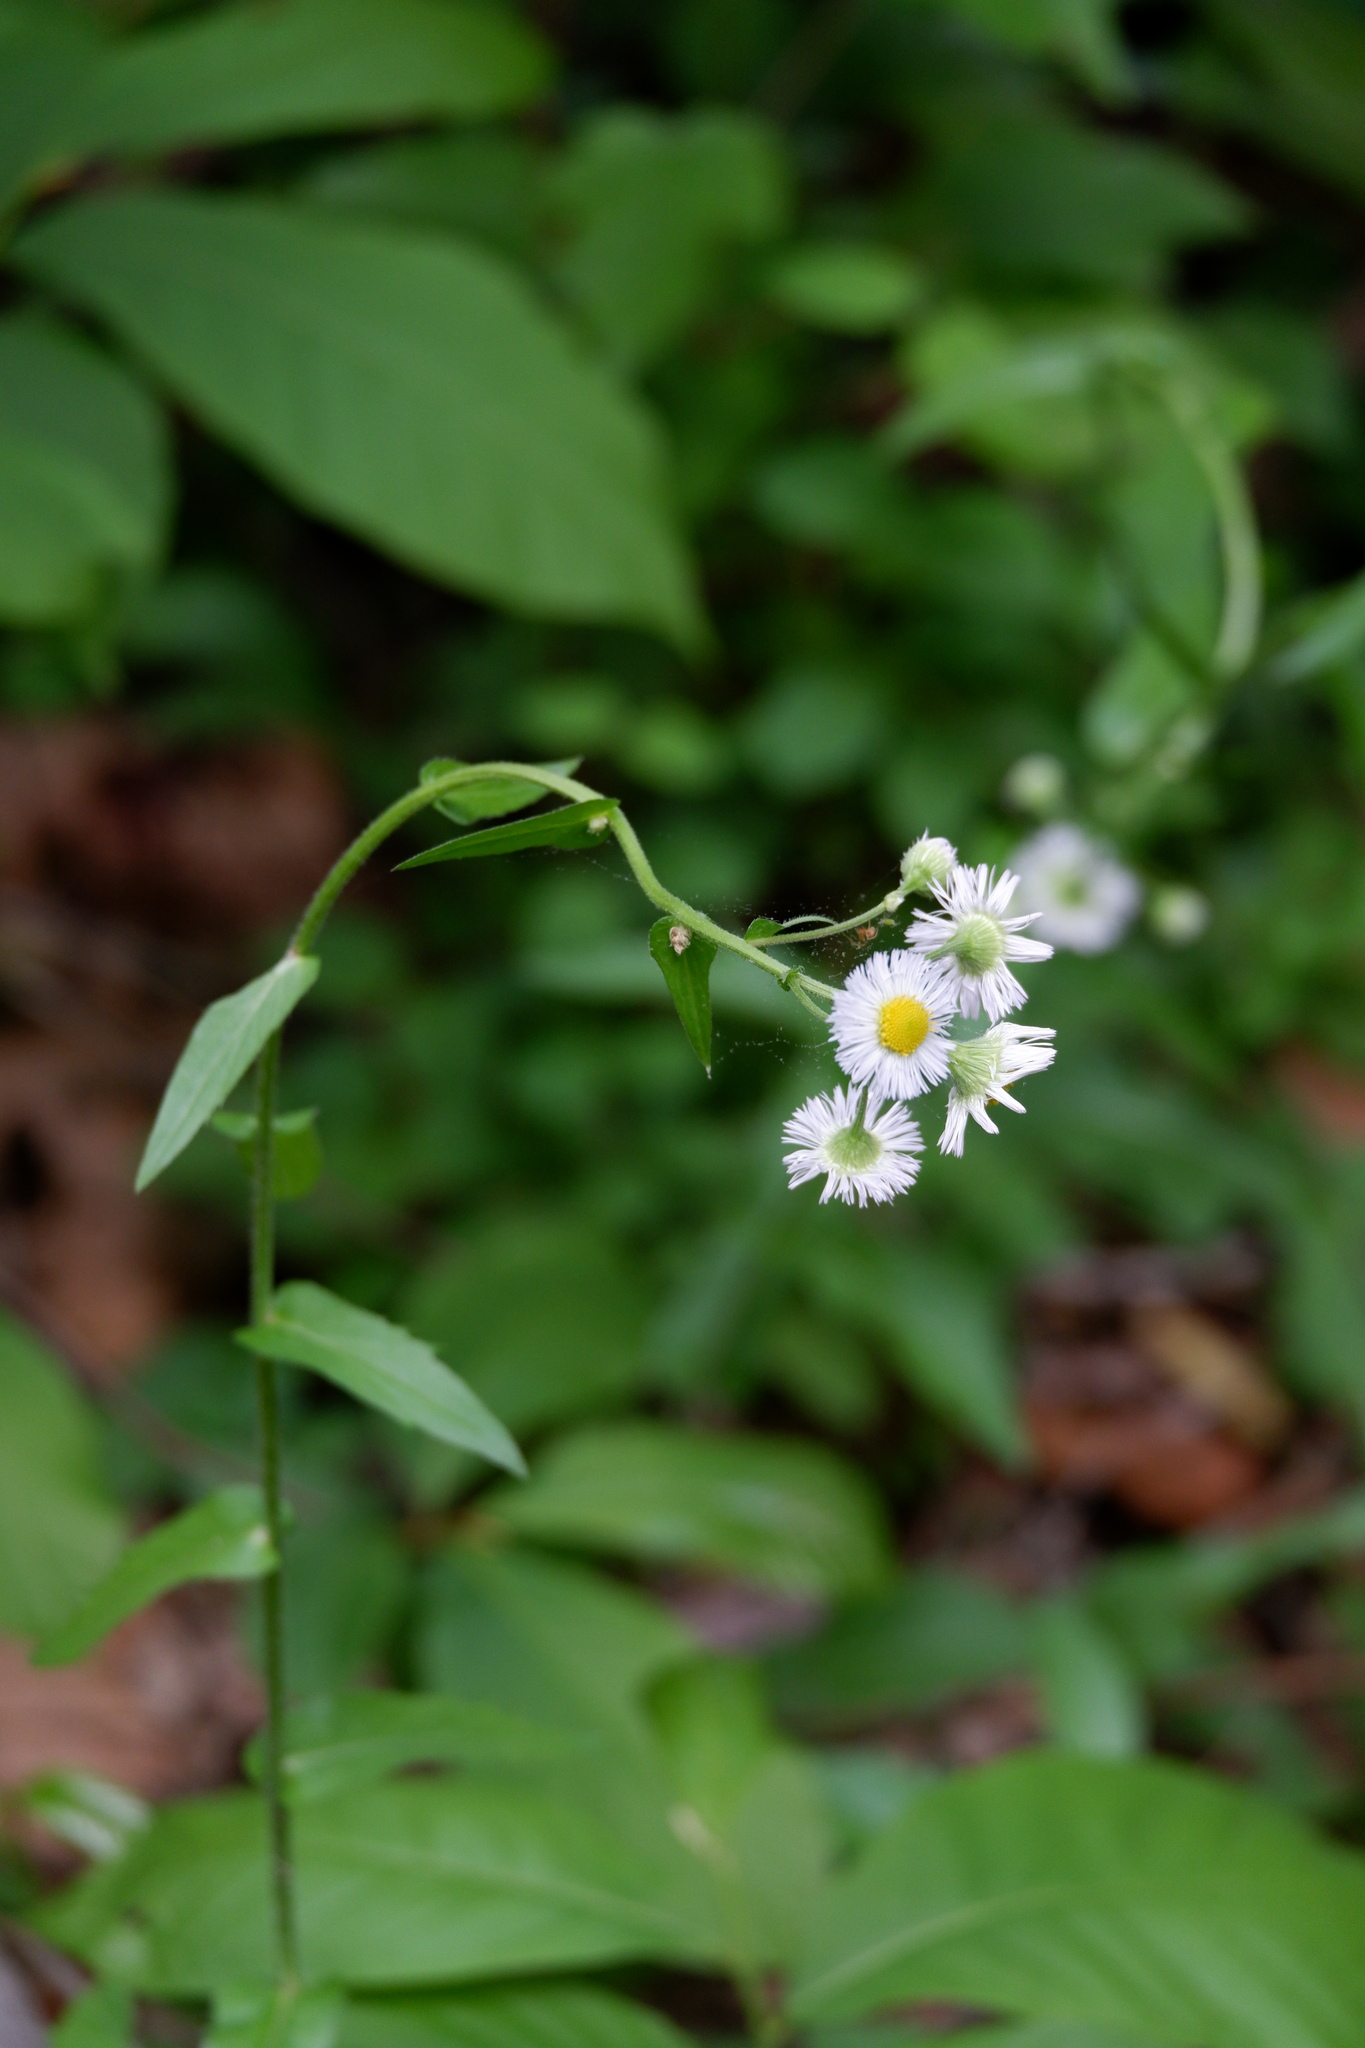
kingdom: Plantae
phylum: Tracheophyta
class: Magnoliopsida
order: Asterales
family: Asteraceae
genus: Erigeron
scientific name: Erigeron philadelphicus
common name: Robin's-plantain
